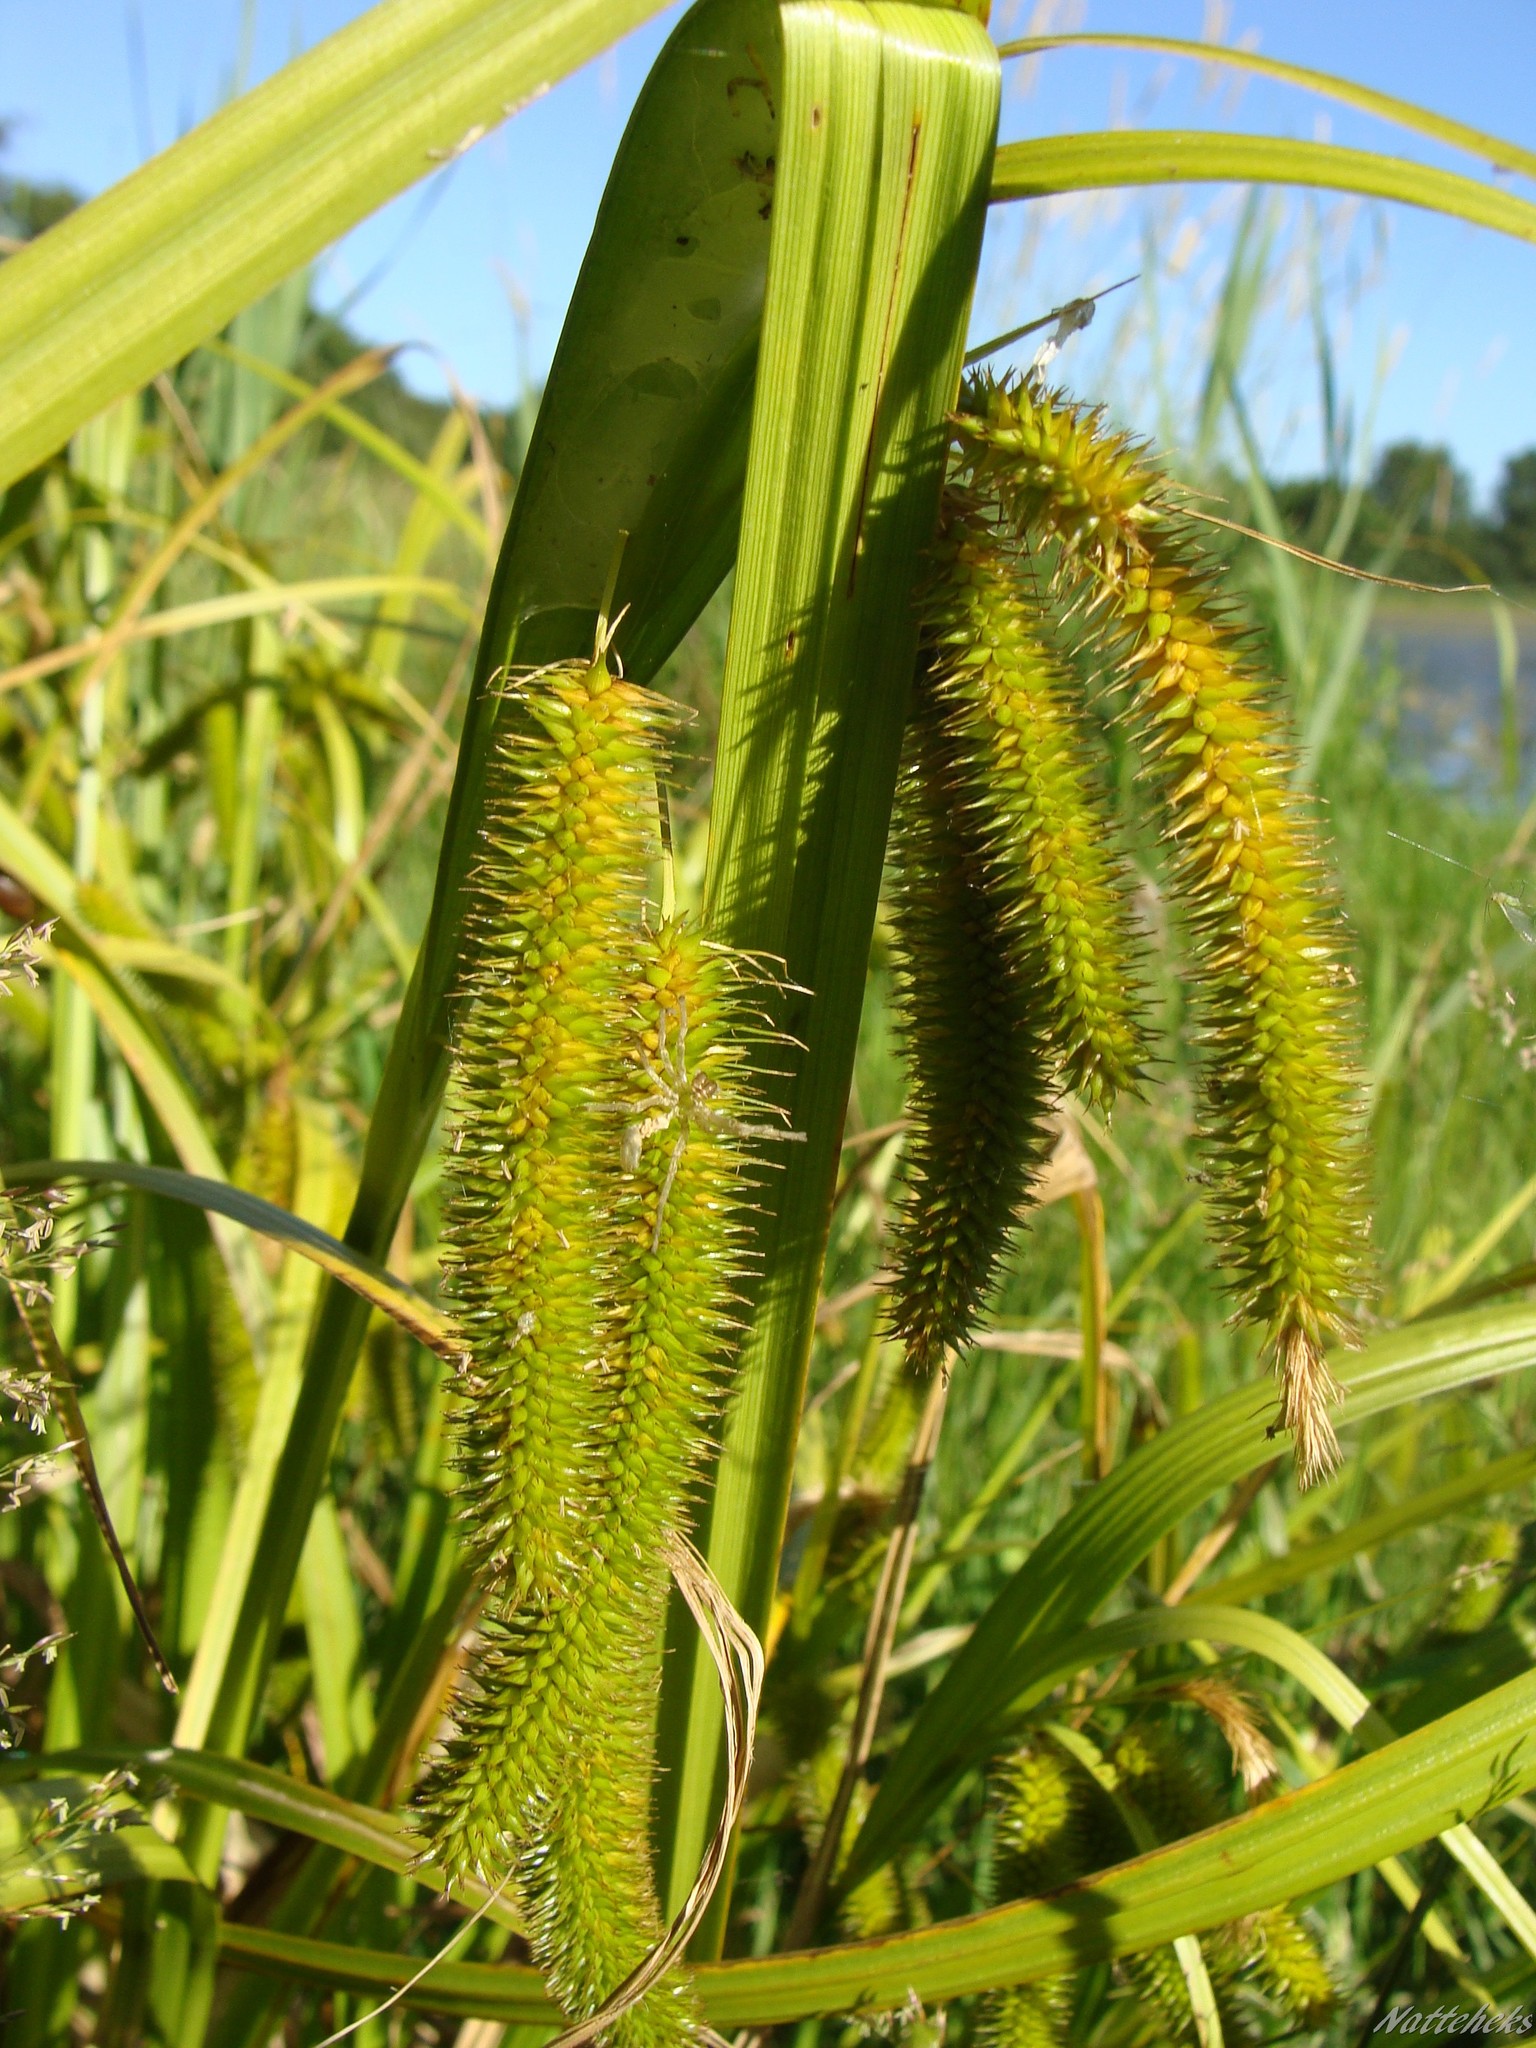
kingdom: Plantae
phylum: Tracheophyta
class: Liliopsida
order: Poales
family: Cyperaceae
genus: Carex
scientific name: Carex pseudocyperus
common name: Cyperus sedge
